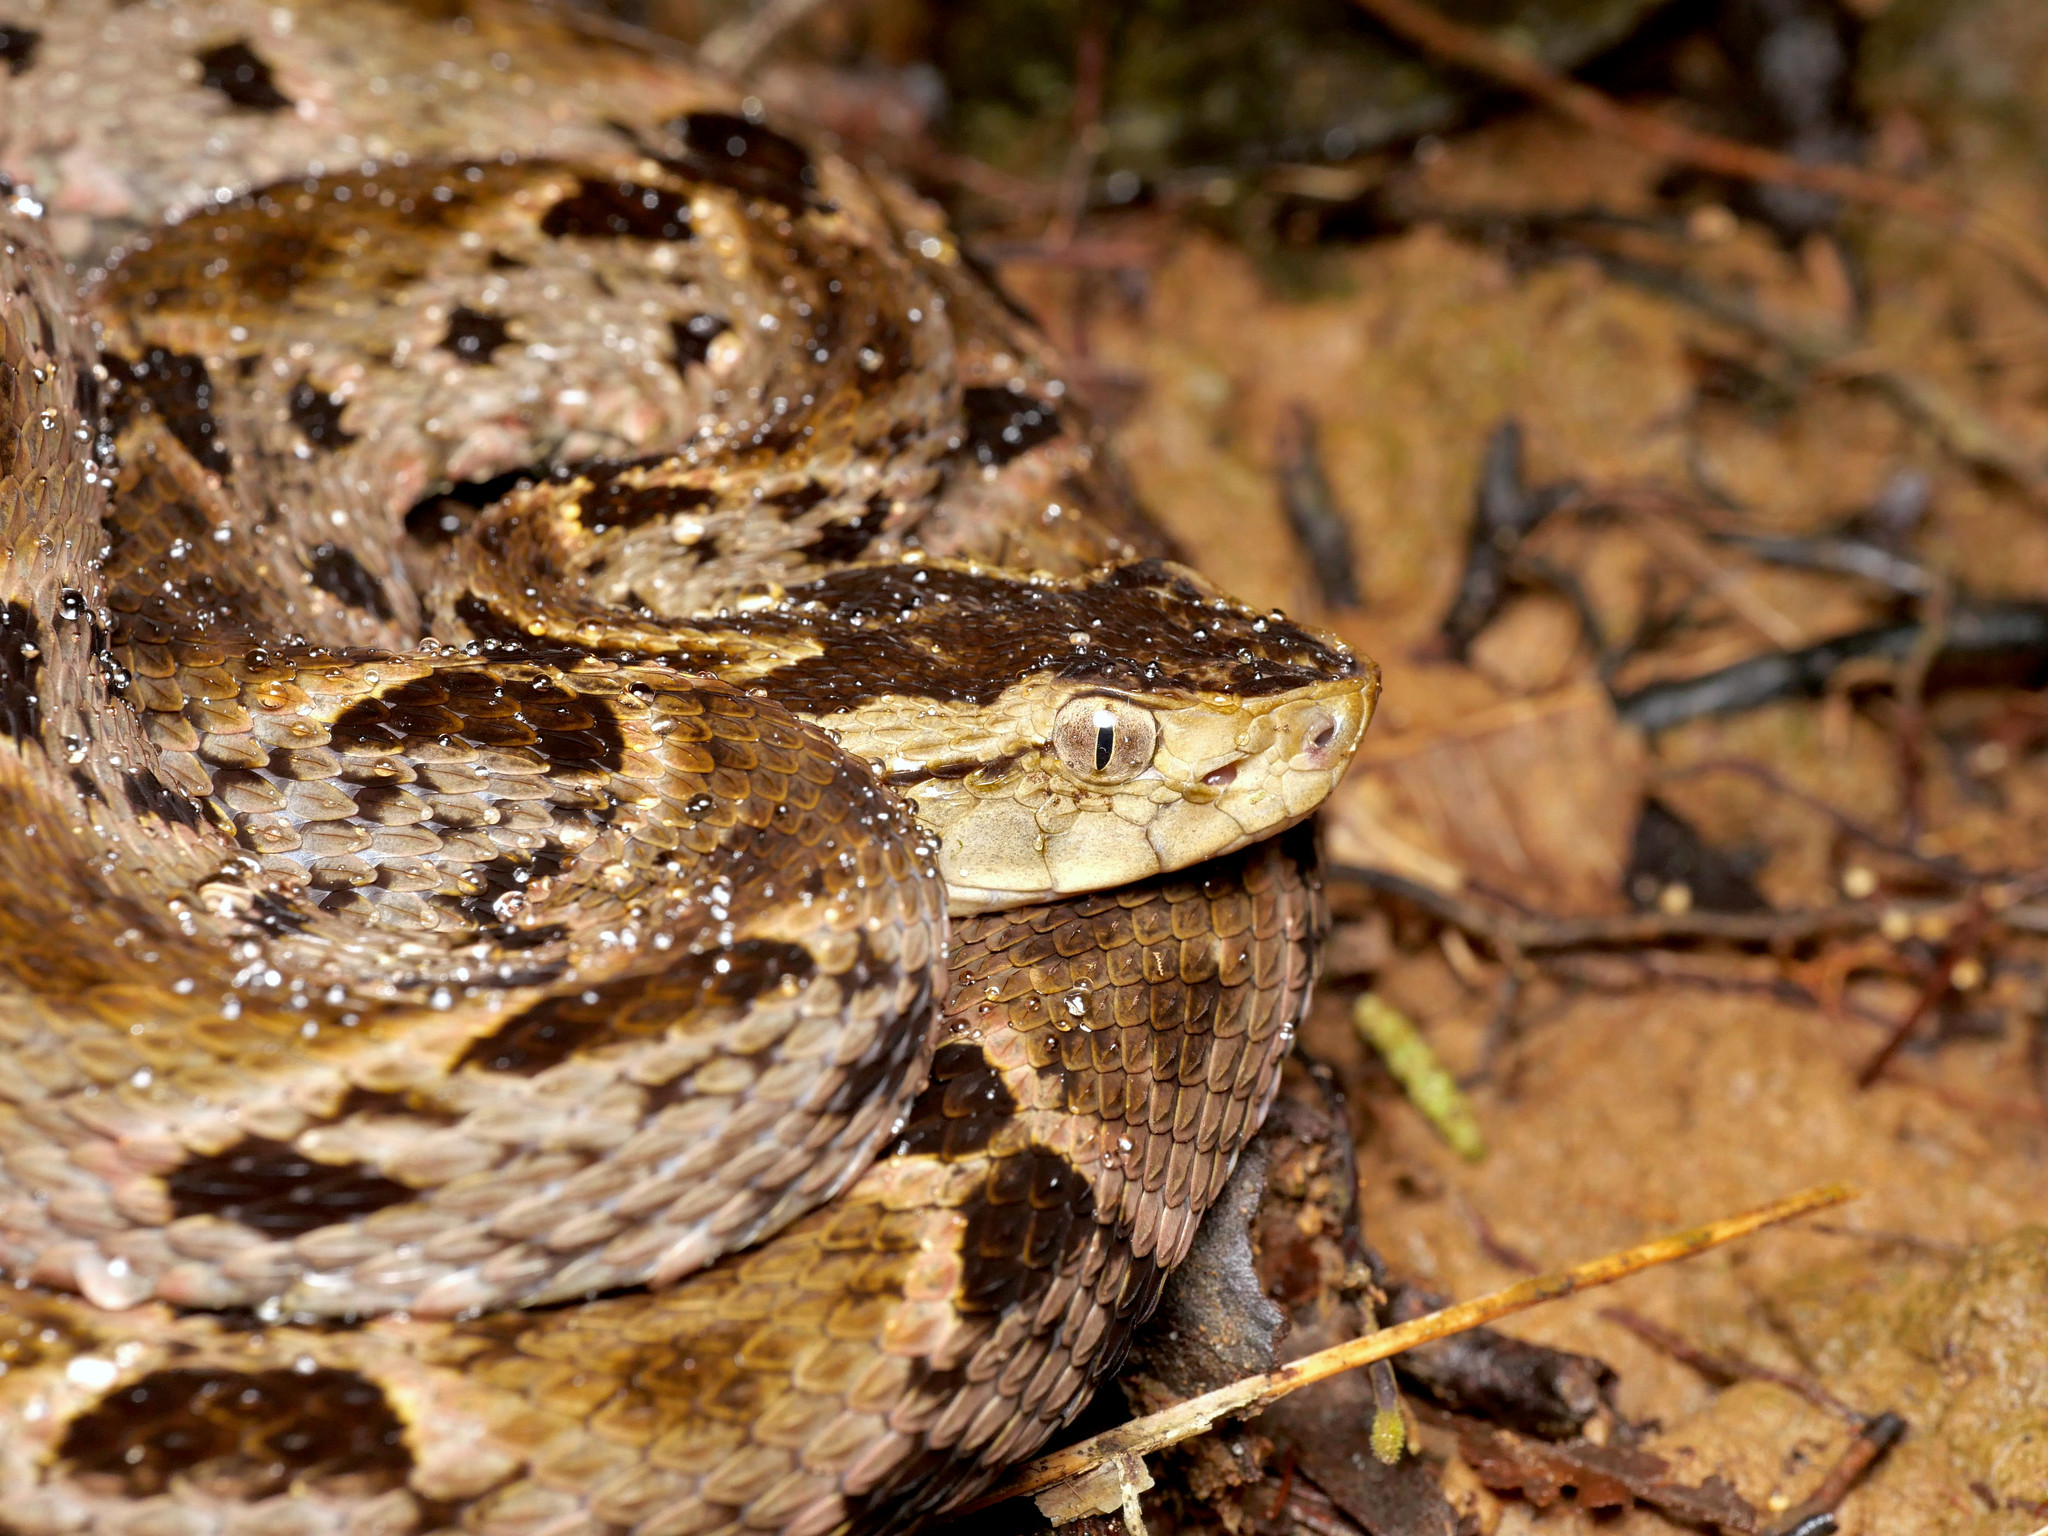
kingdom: Animalia
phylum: Chordata
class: Squamata
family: Viperidae
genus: Bothrops
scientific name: Bothrops asper
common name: Terciopelo
